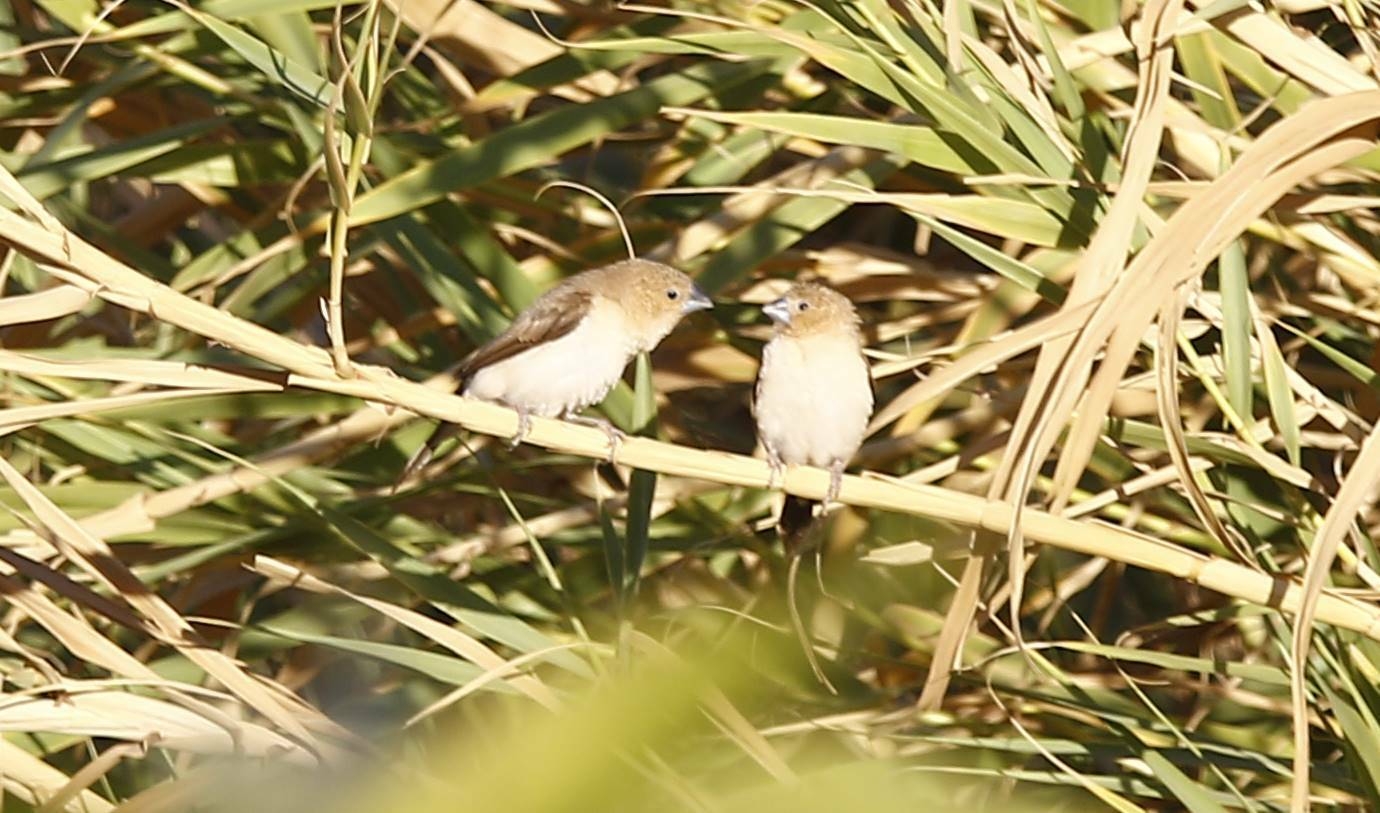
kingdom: Animalia
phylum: Chordata
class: Aves
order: Passeriformes
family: Estrildidae
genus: Euodice
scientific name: Euodice cantans
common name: African silverbill
